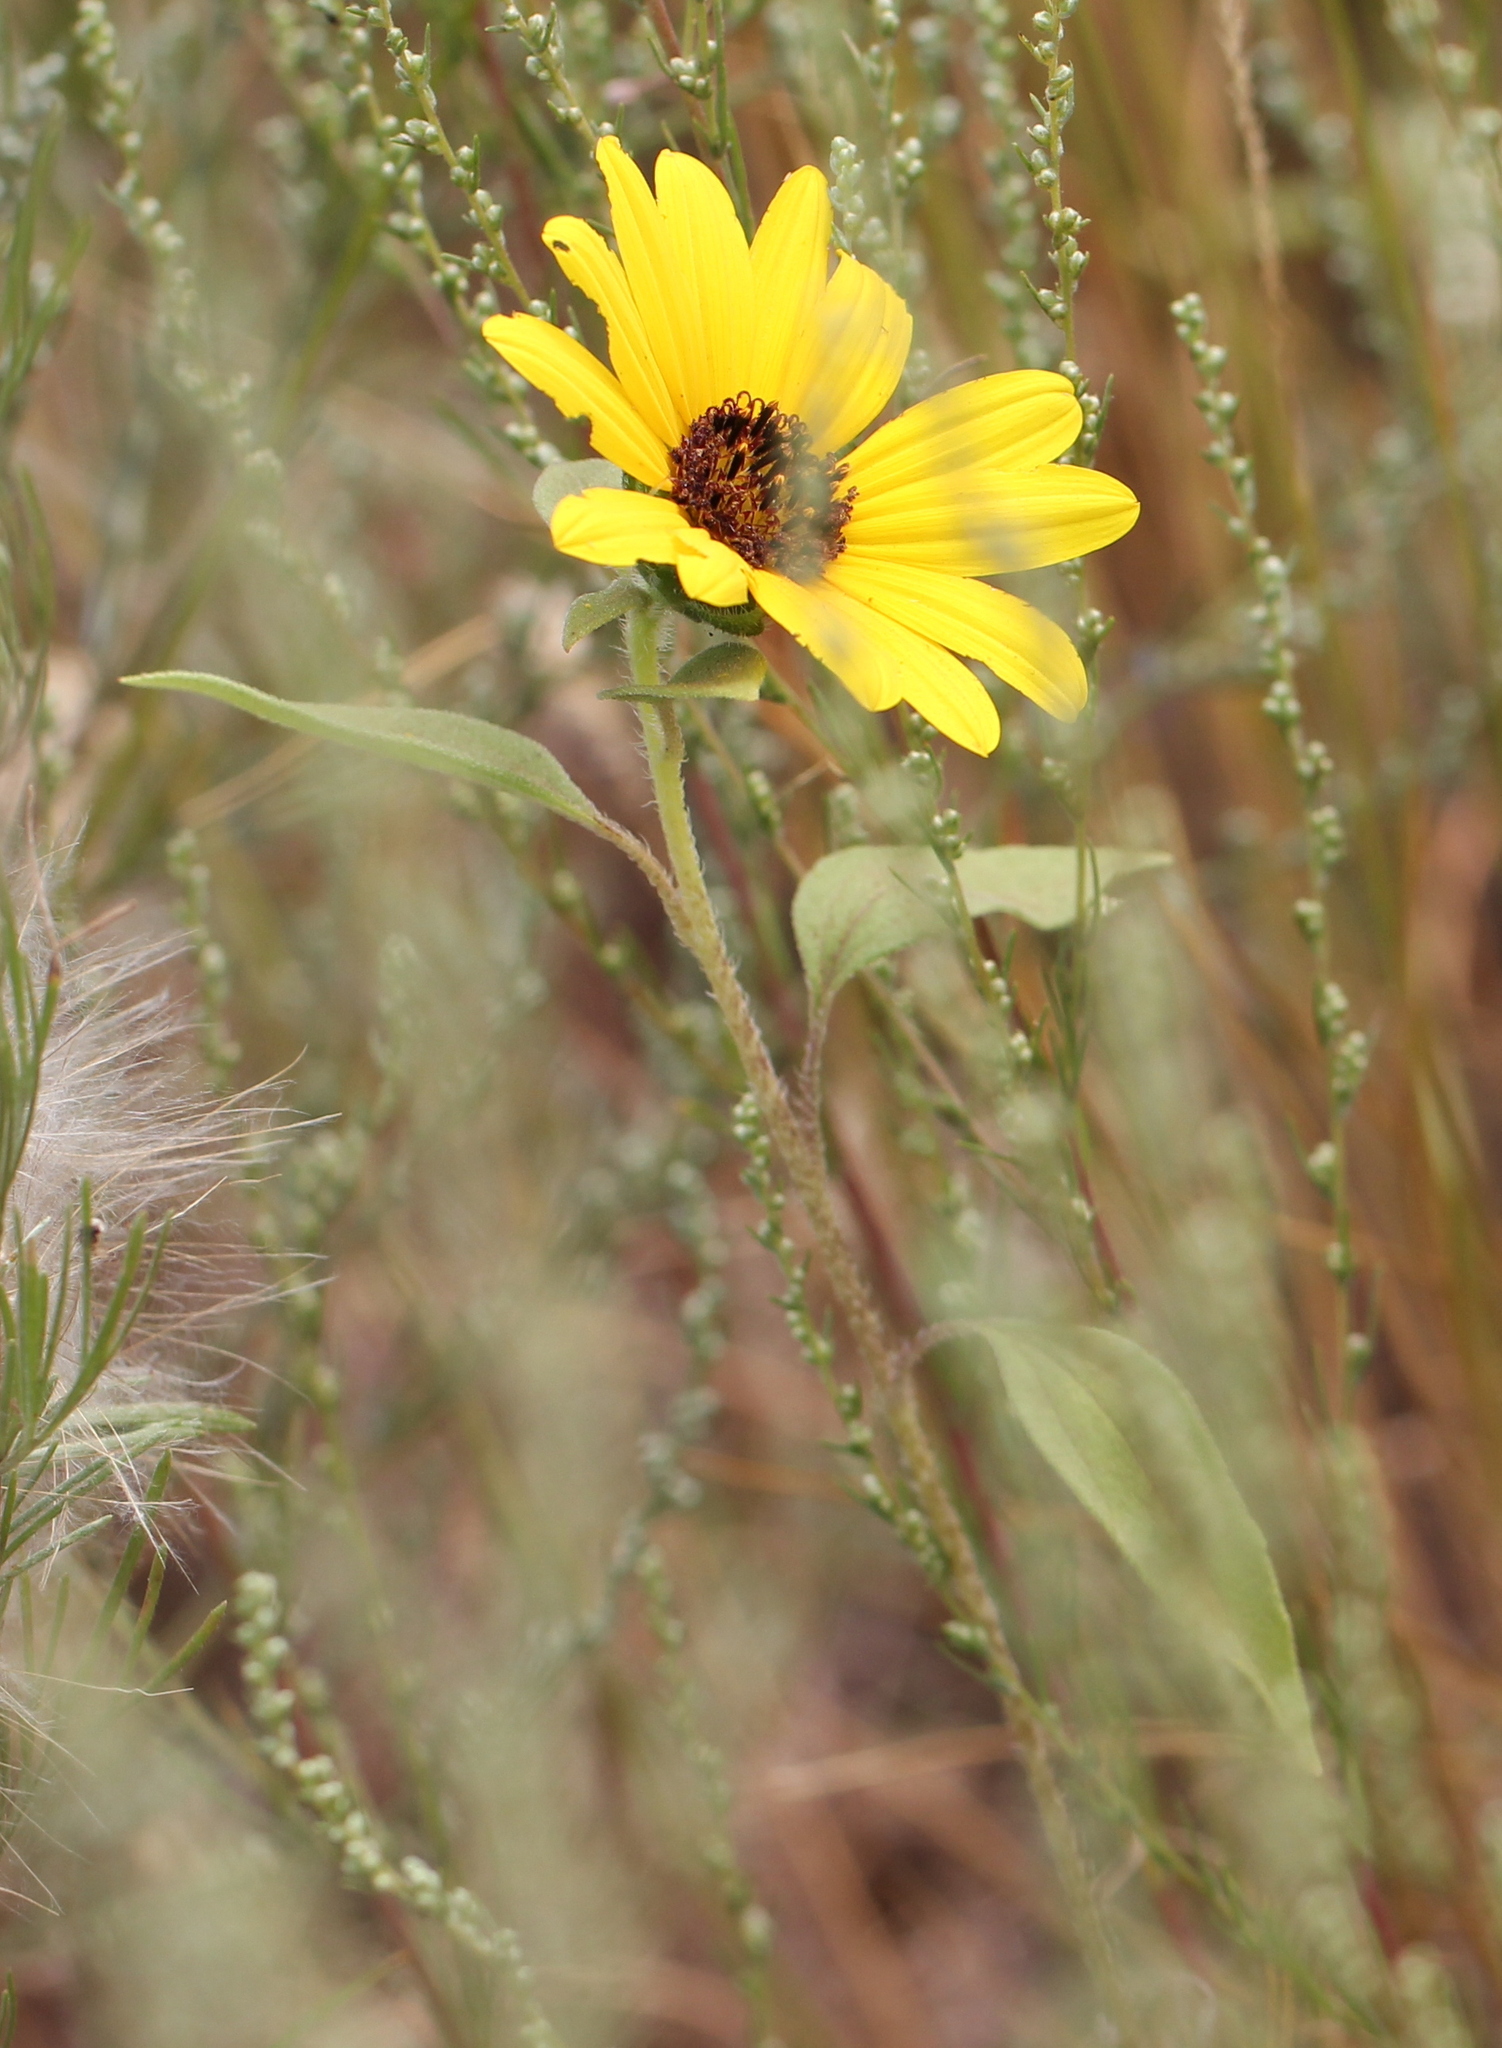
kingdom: Plantae
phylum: Tracheophyta
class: Magnoliopsida
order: Asterales
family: Asteraceae
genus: Helianthus
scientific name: Helianthus annuus
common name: Sunflower
